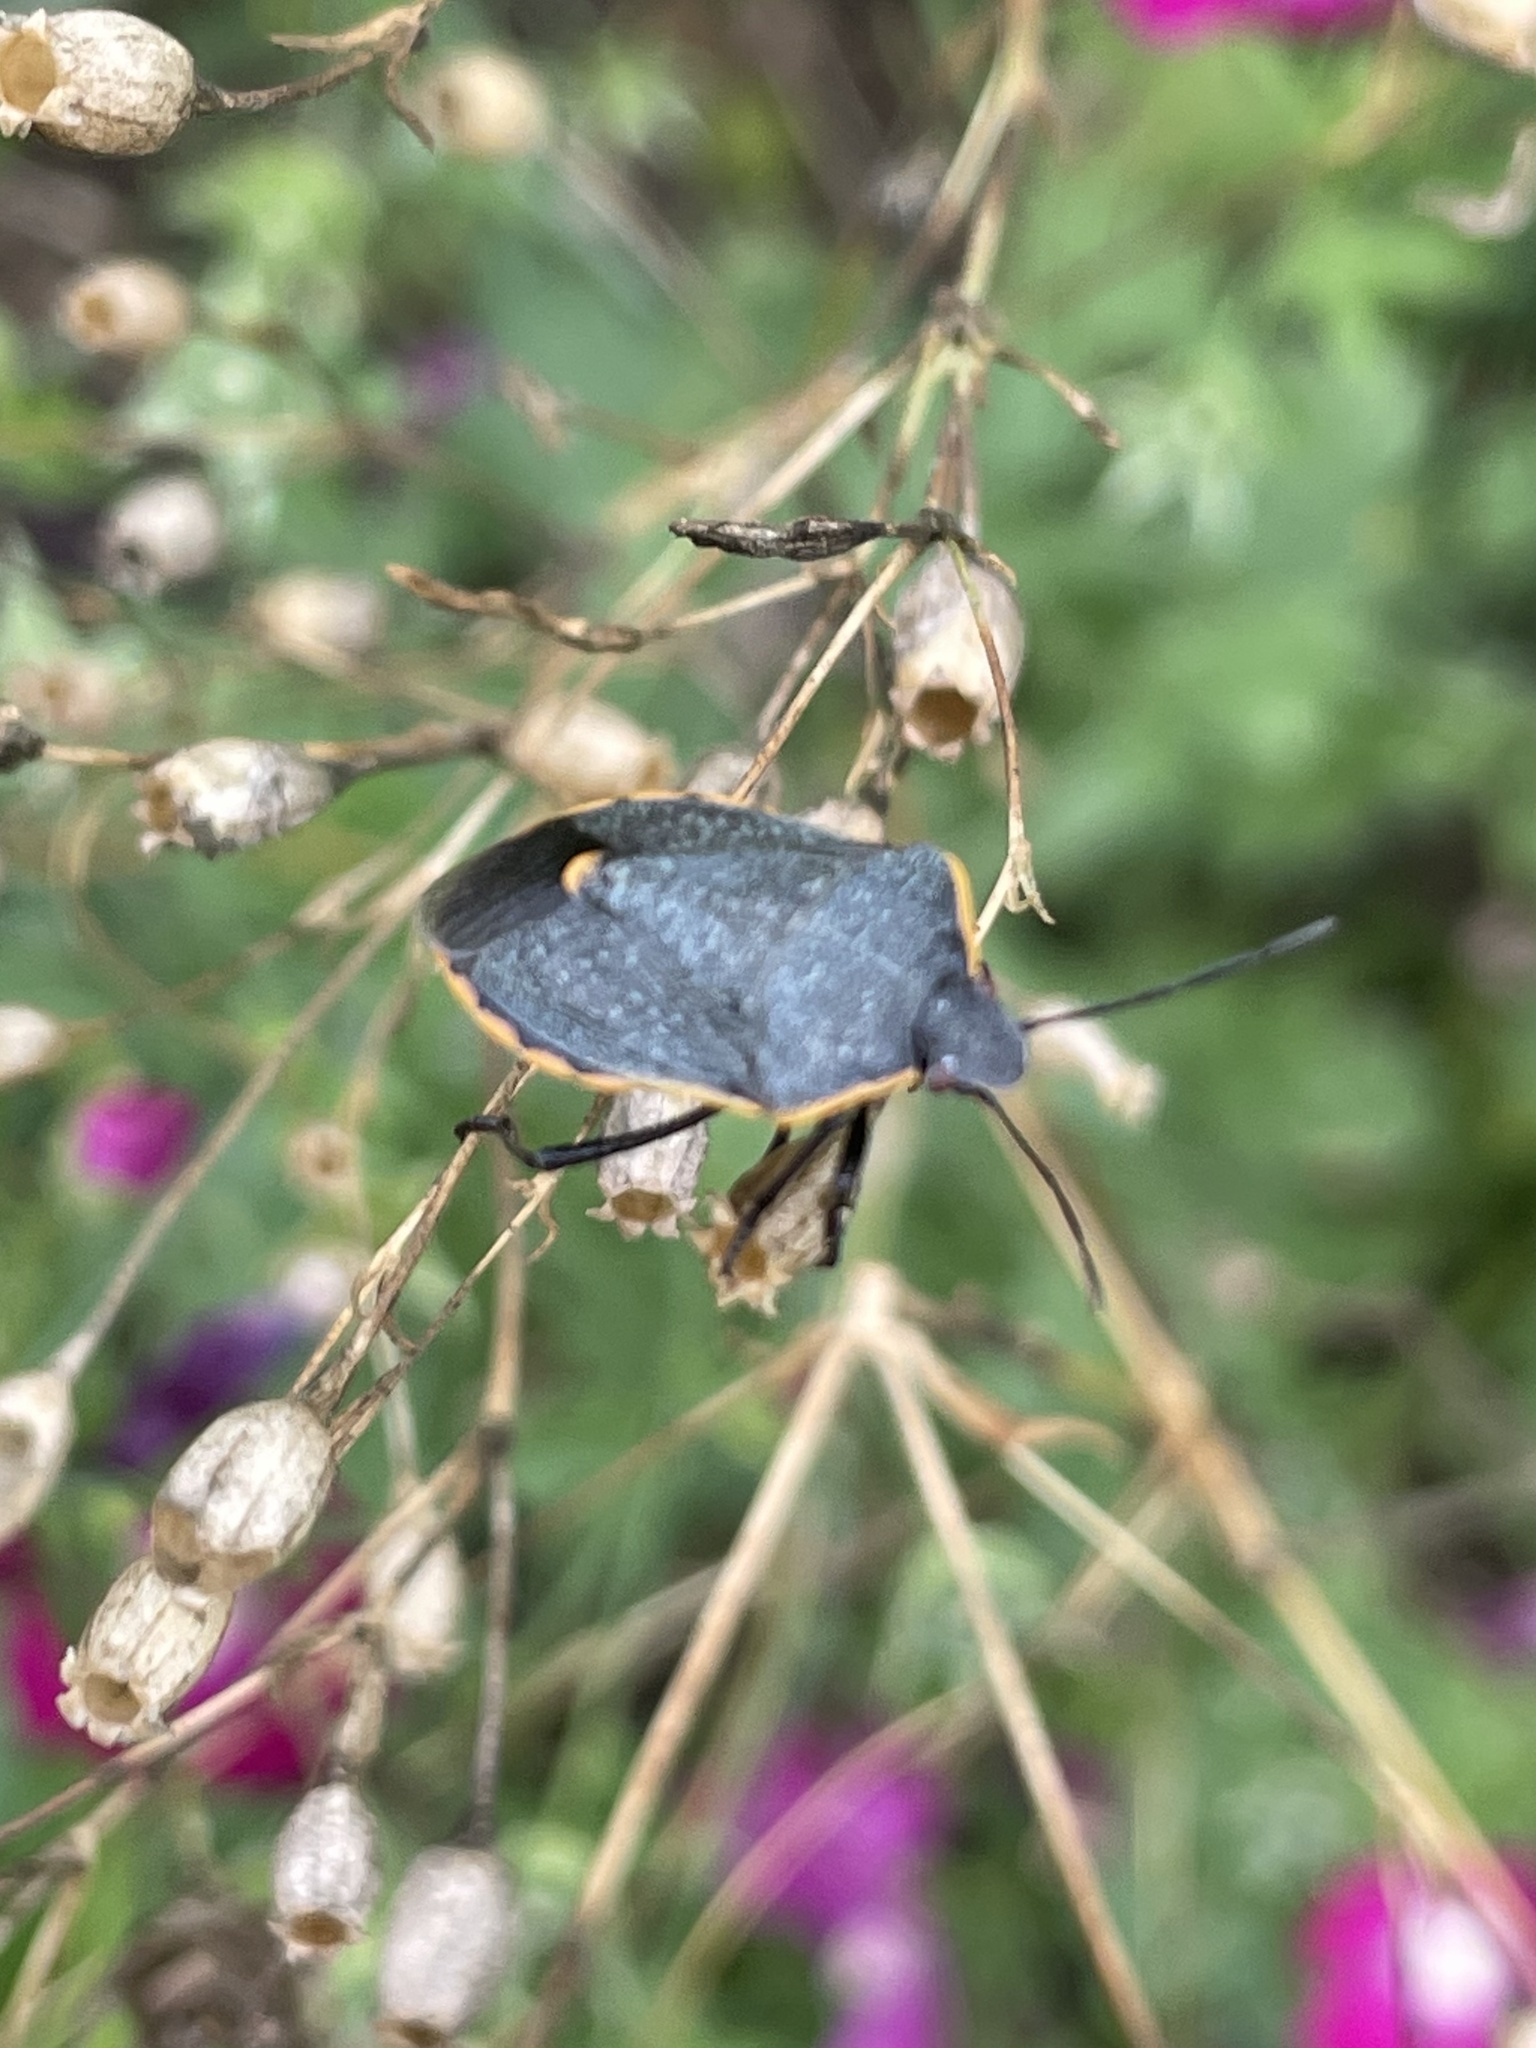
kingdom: Animalia
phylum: Arthropoda
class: Insecta
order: Hemiptera
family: Pentatomidae
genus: Chlorochroa
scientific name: Chlorochroa ligata
